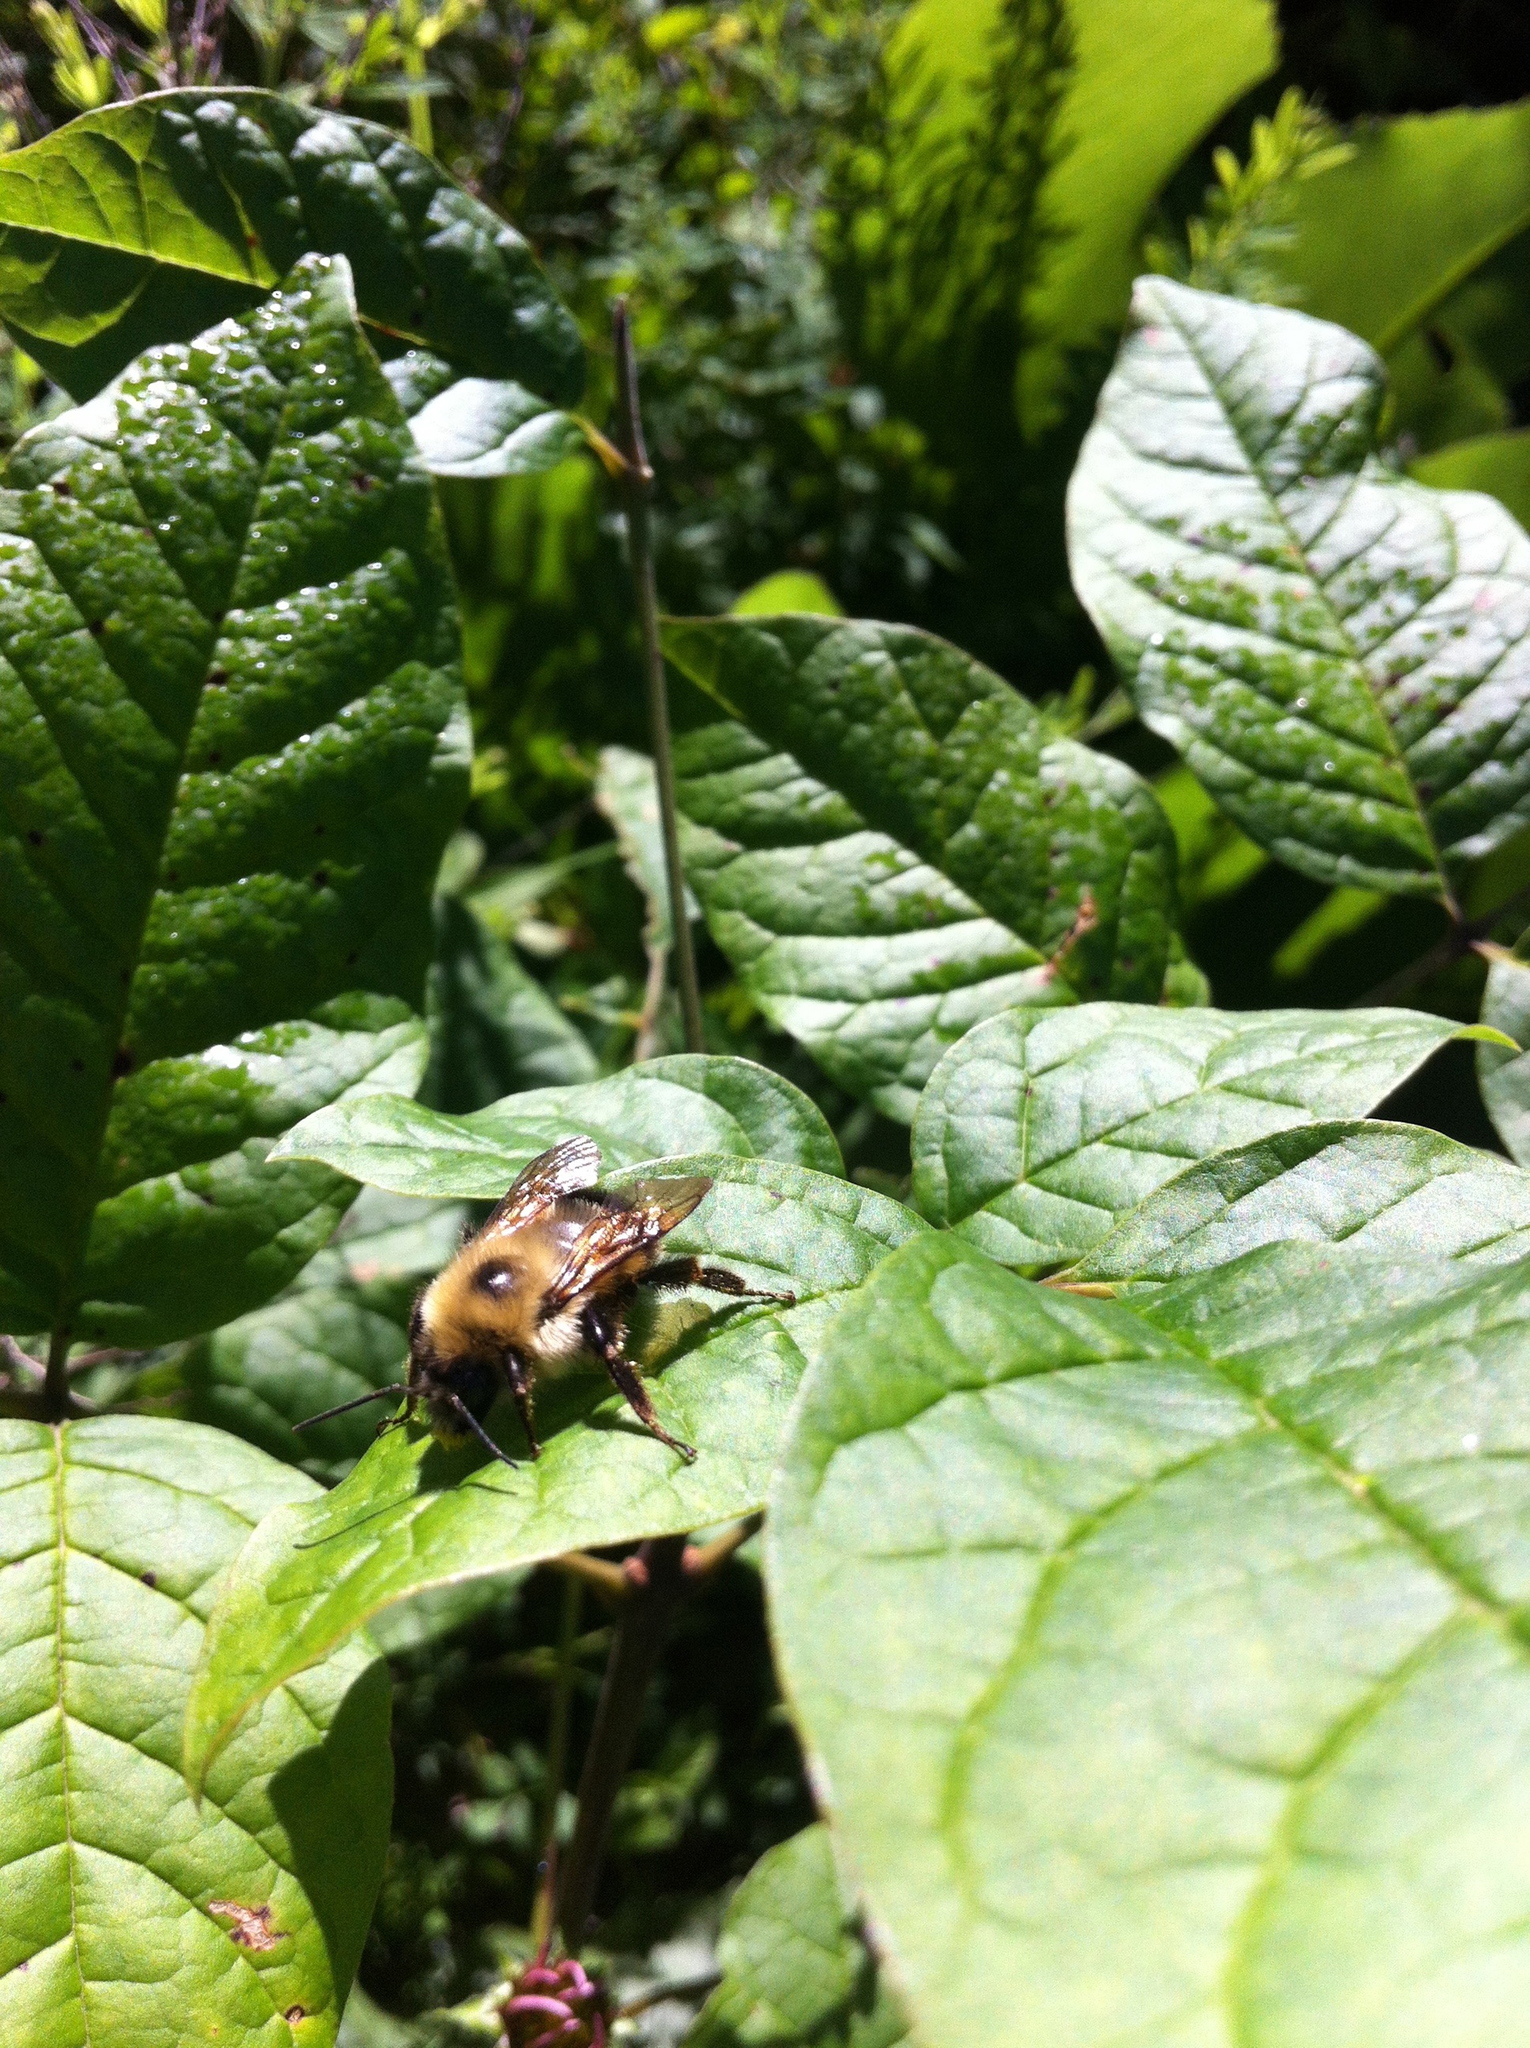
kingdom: Animalia
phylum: Arthropoda
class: Insecta
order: Hymenoptera
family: Apidae
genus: Pyrobombus
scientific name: Pyrobombus
